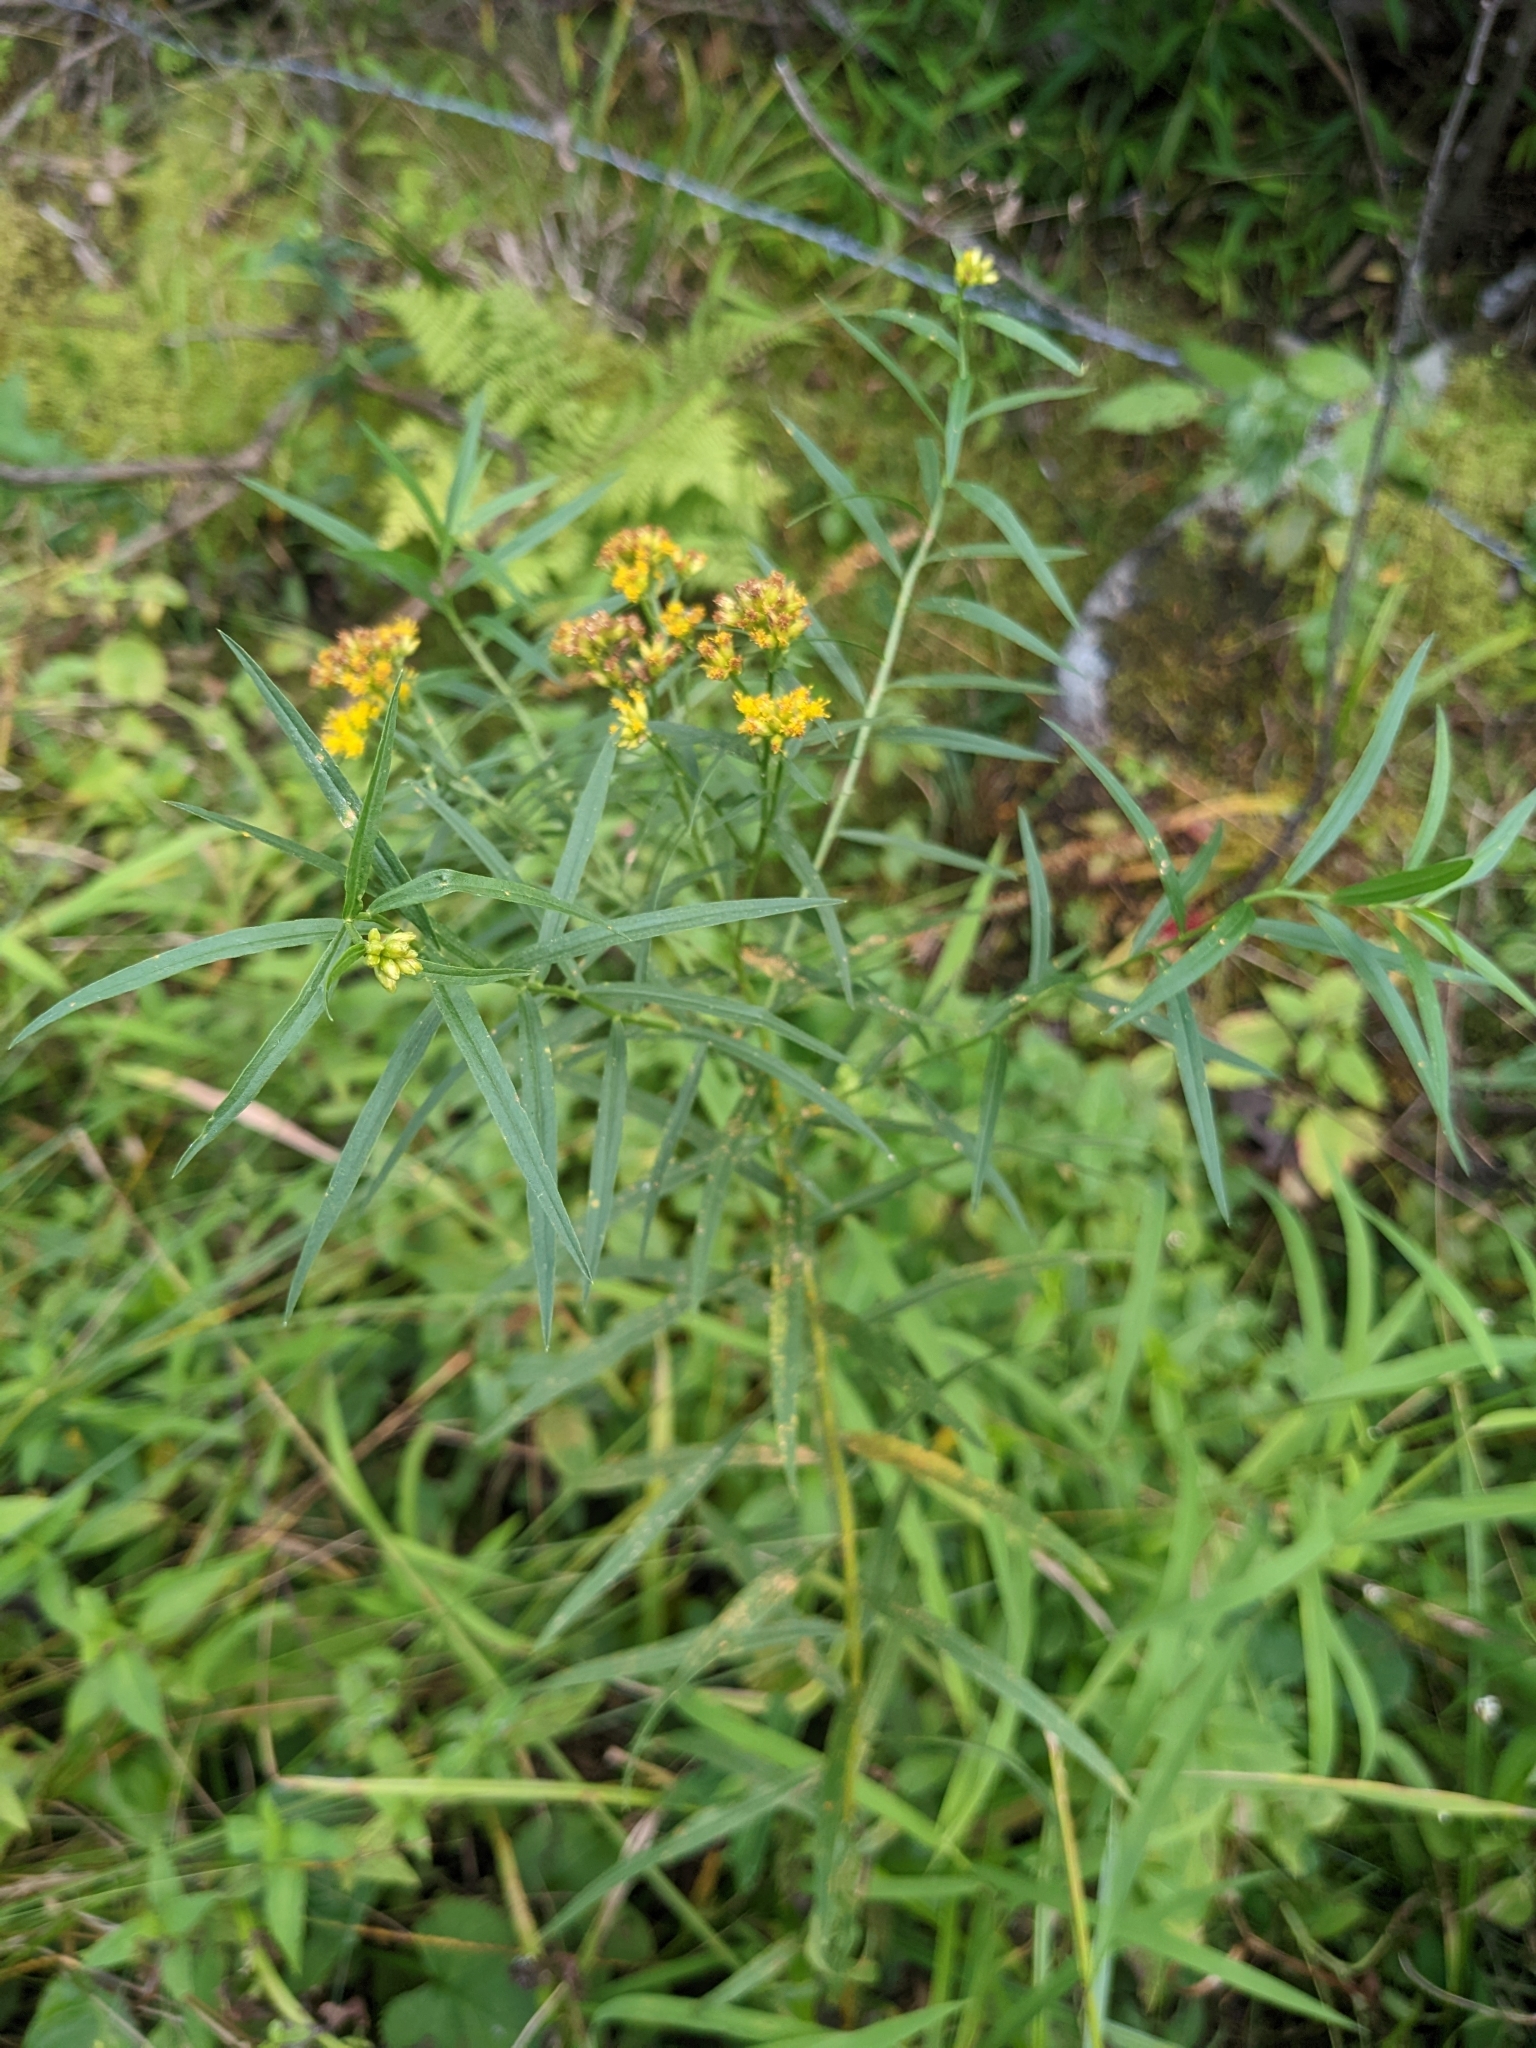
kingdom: Plantae
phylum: Tracheophyta
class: Magnoliopsida
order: Asterales
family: Asteraceae
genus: Euthamia
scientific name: Euthamia graminifolia
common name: Common goldentop
